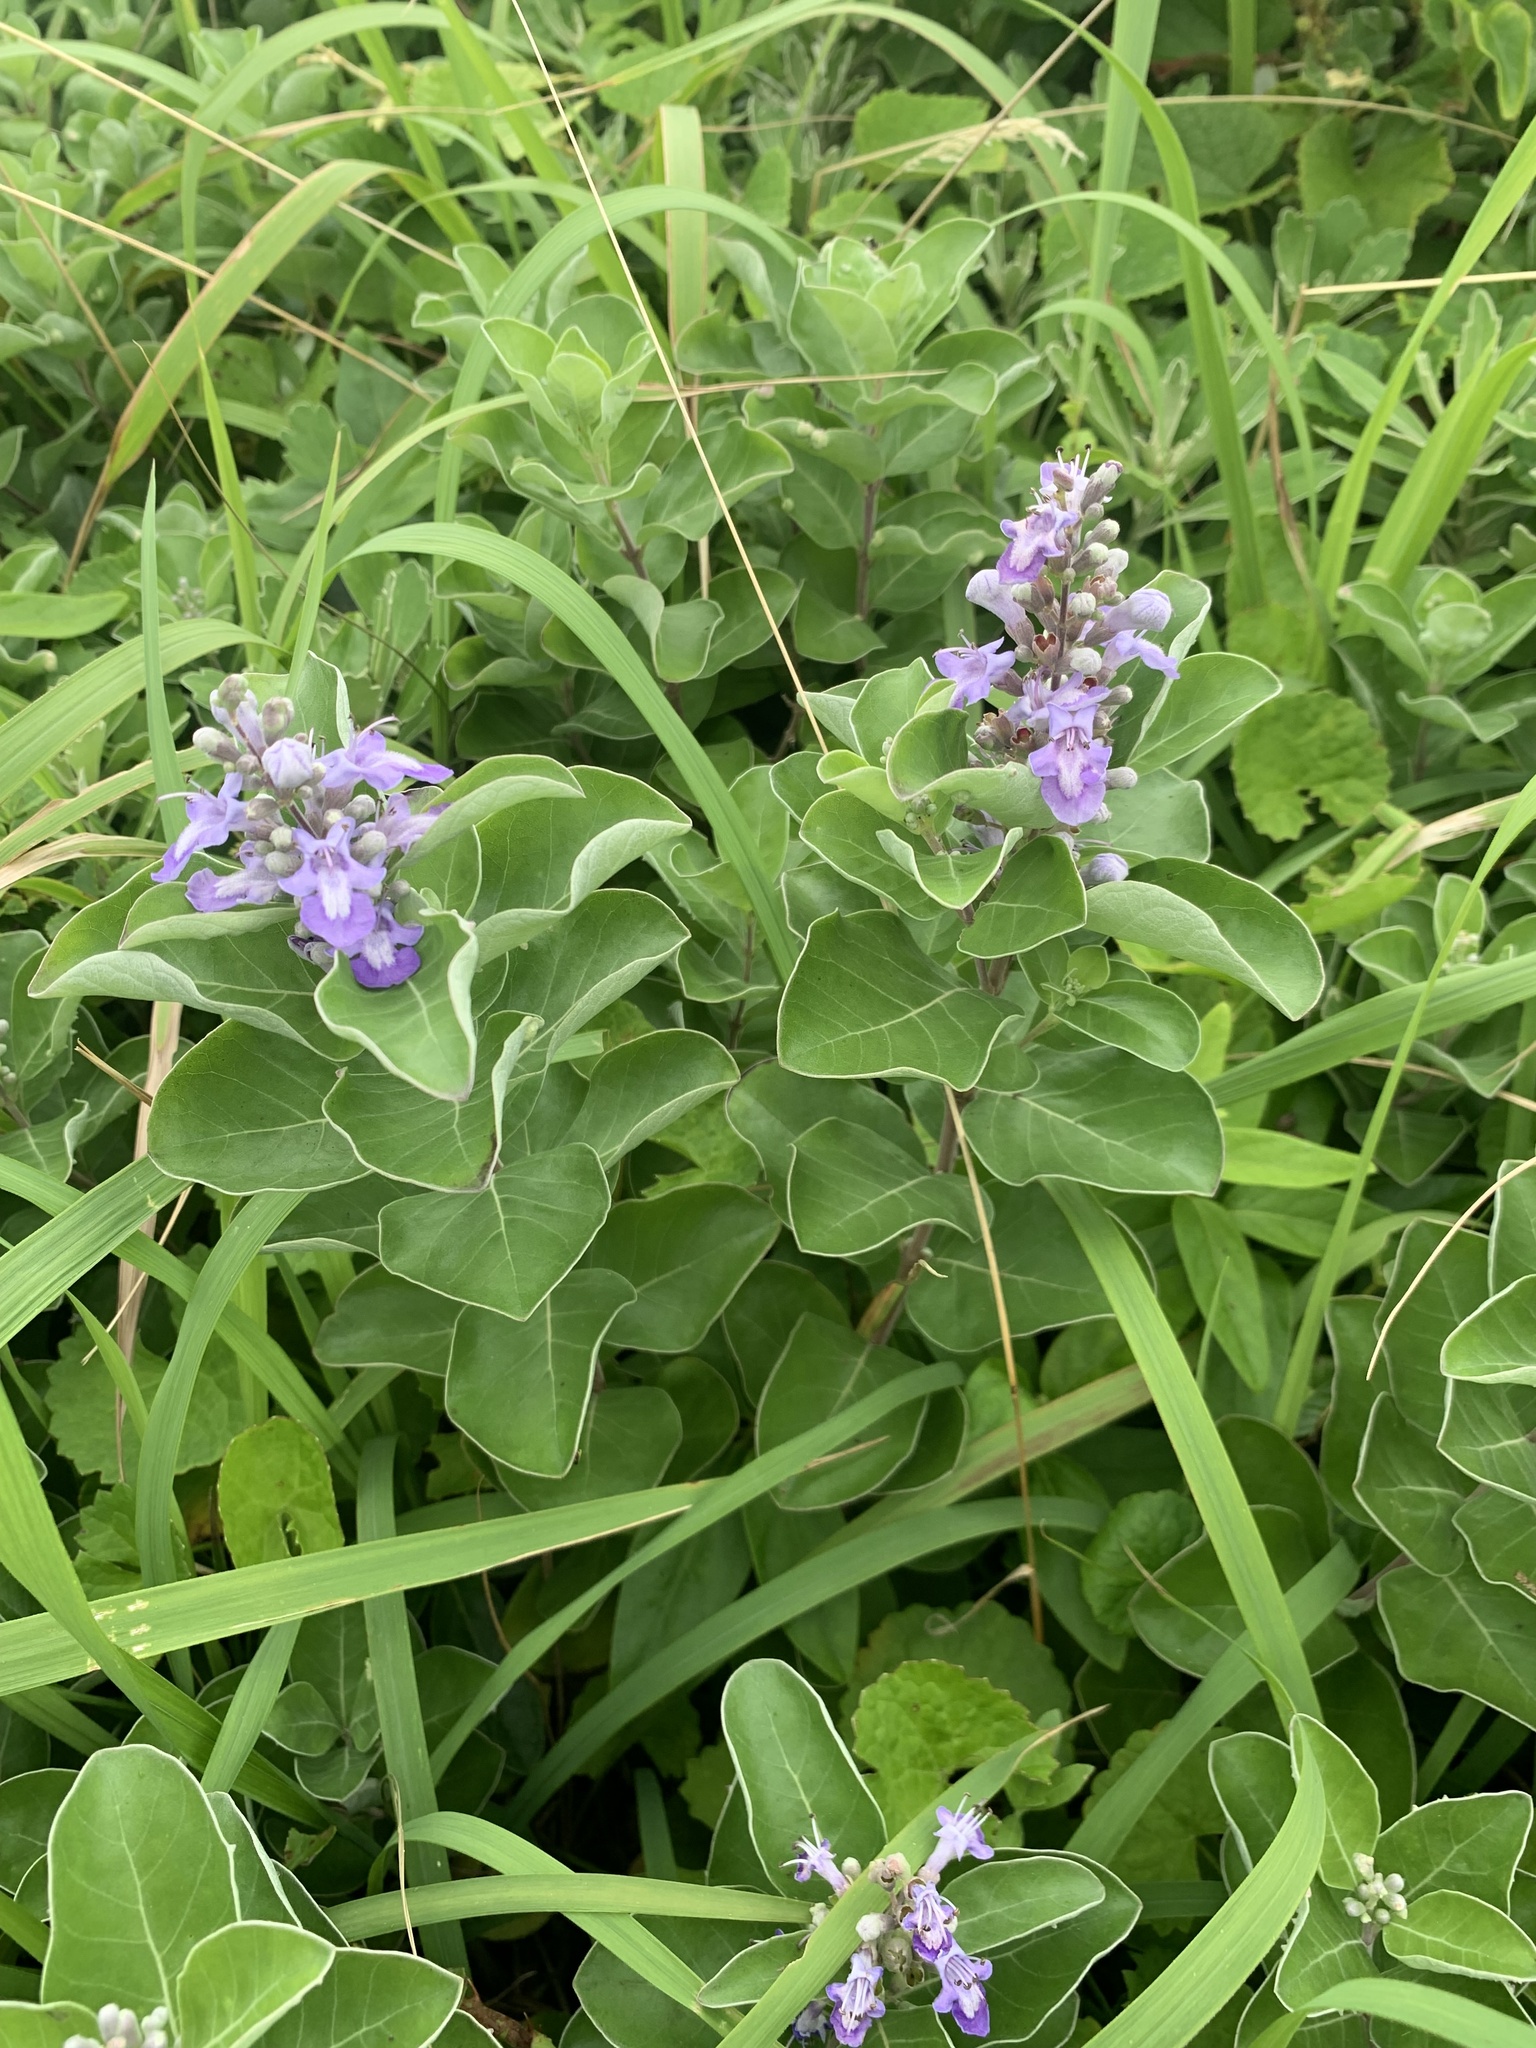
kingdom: Plantae
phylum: Tracheophyta
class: Magnoliopsida
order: Lamiales
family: Lamiaceae
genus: Vitex
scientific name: Vitex rotundifolia
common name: Beach vitex
